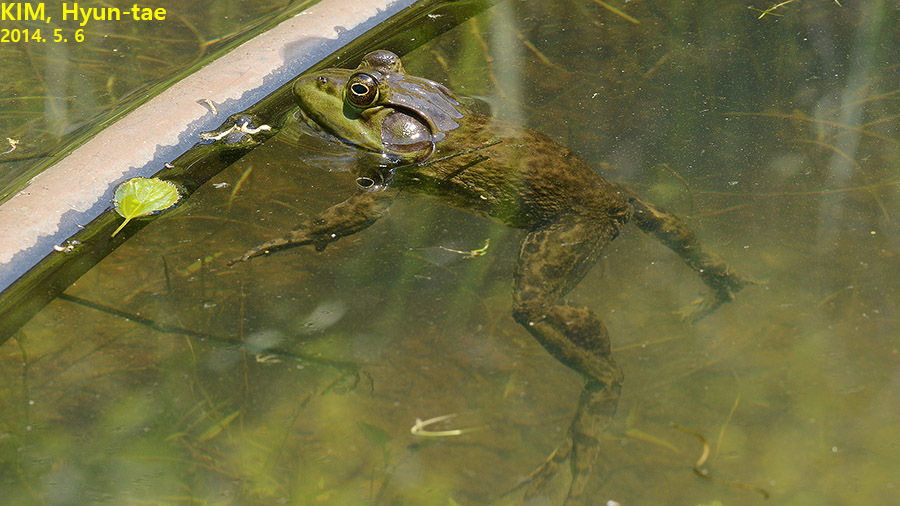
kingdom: Animalia
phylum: Chordata
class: Amphibia
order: Anura
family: Ranidae
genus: Lithobates
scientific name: Lithobates catesbeianus
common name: American bullfrog
